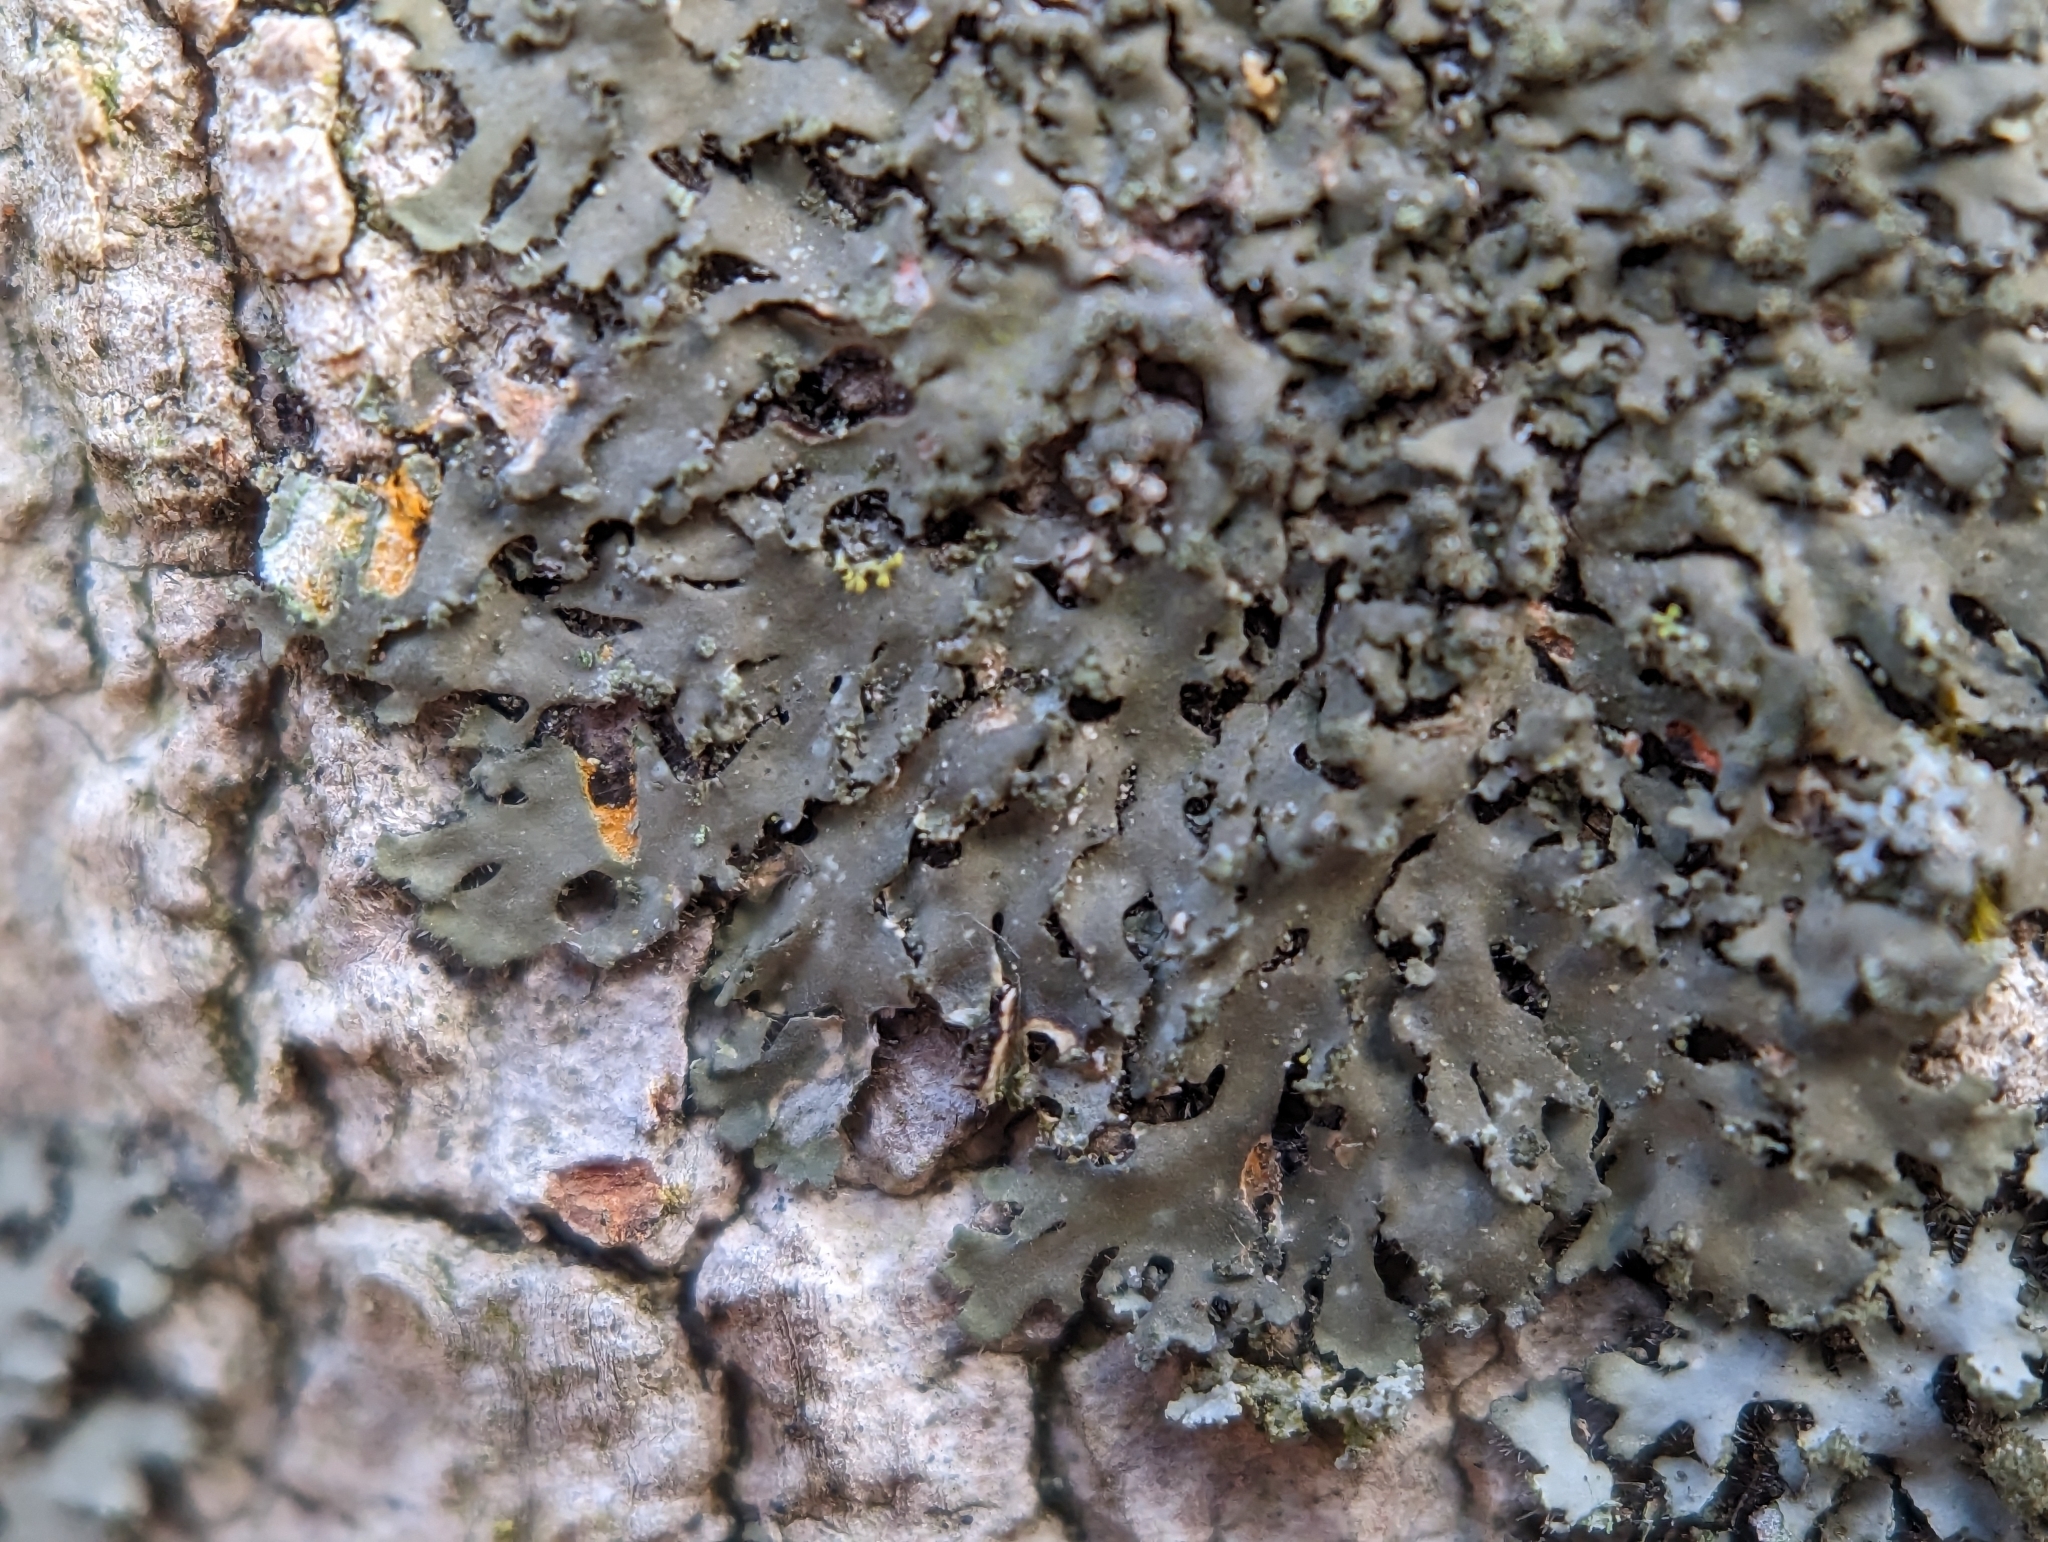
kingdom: Fungi
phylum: Ascomycota
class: Lecanoromycetes
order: Caliciales
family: Physciaceae
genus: Phaeophyscia
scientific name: Phaeophyscia rubropulchra
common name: Orange-cored shadow lichen
